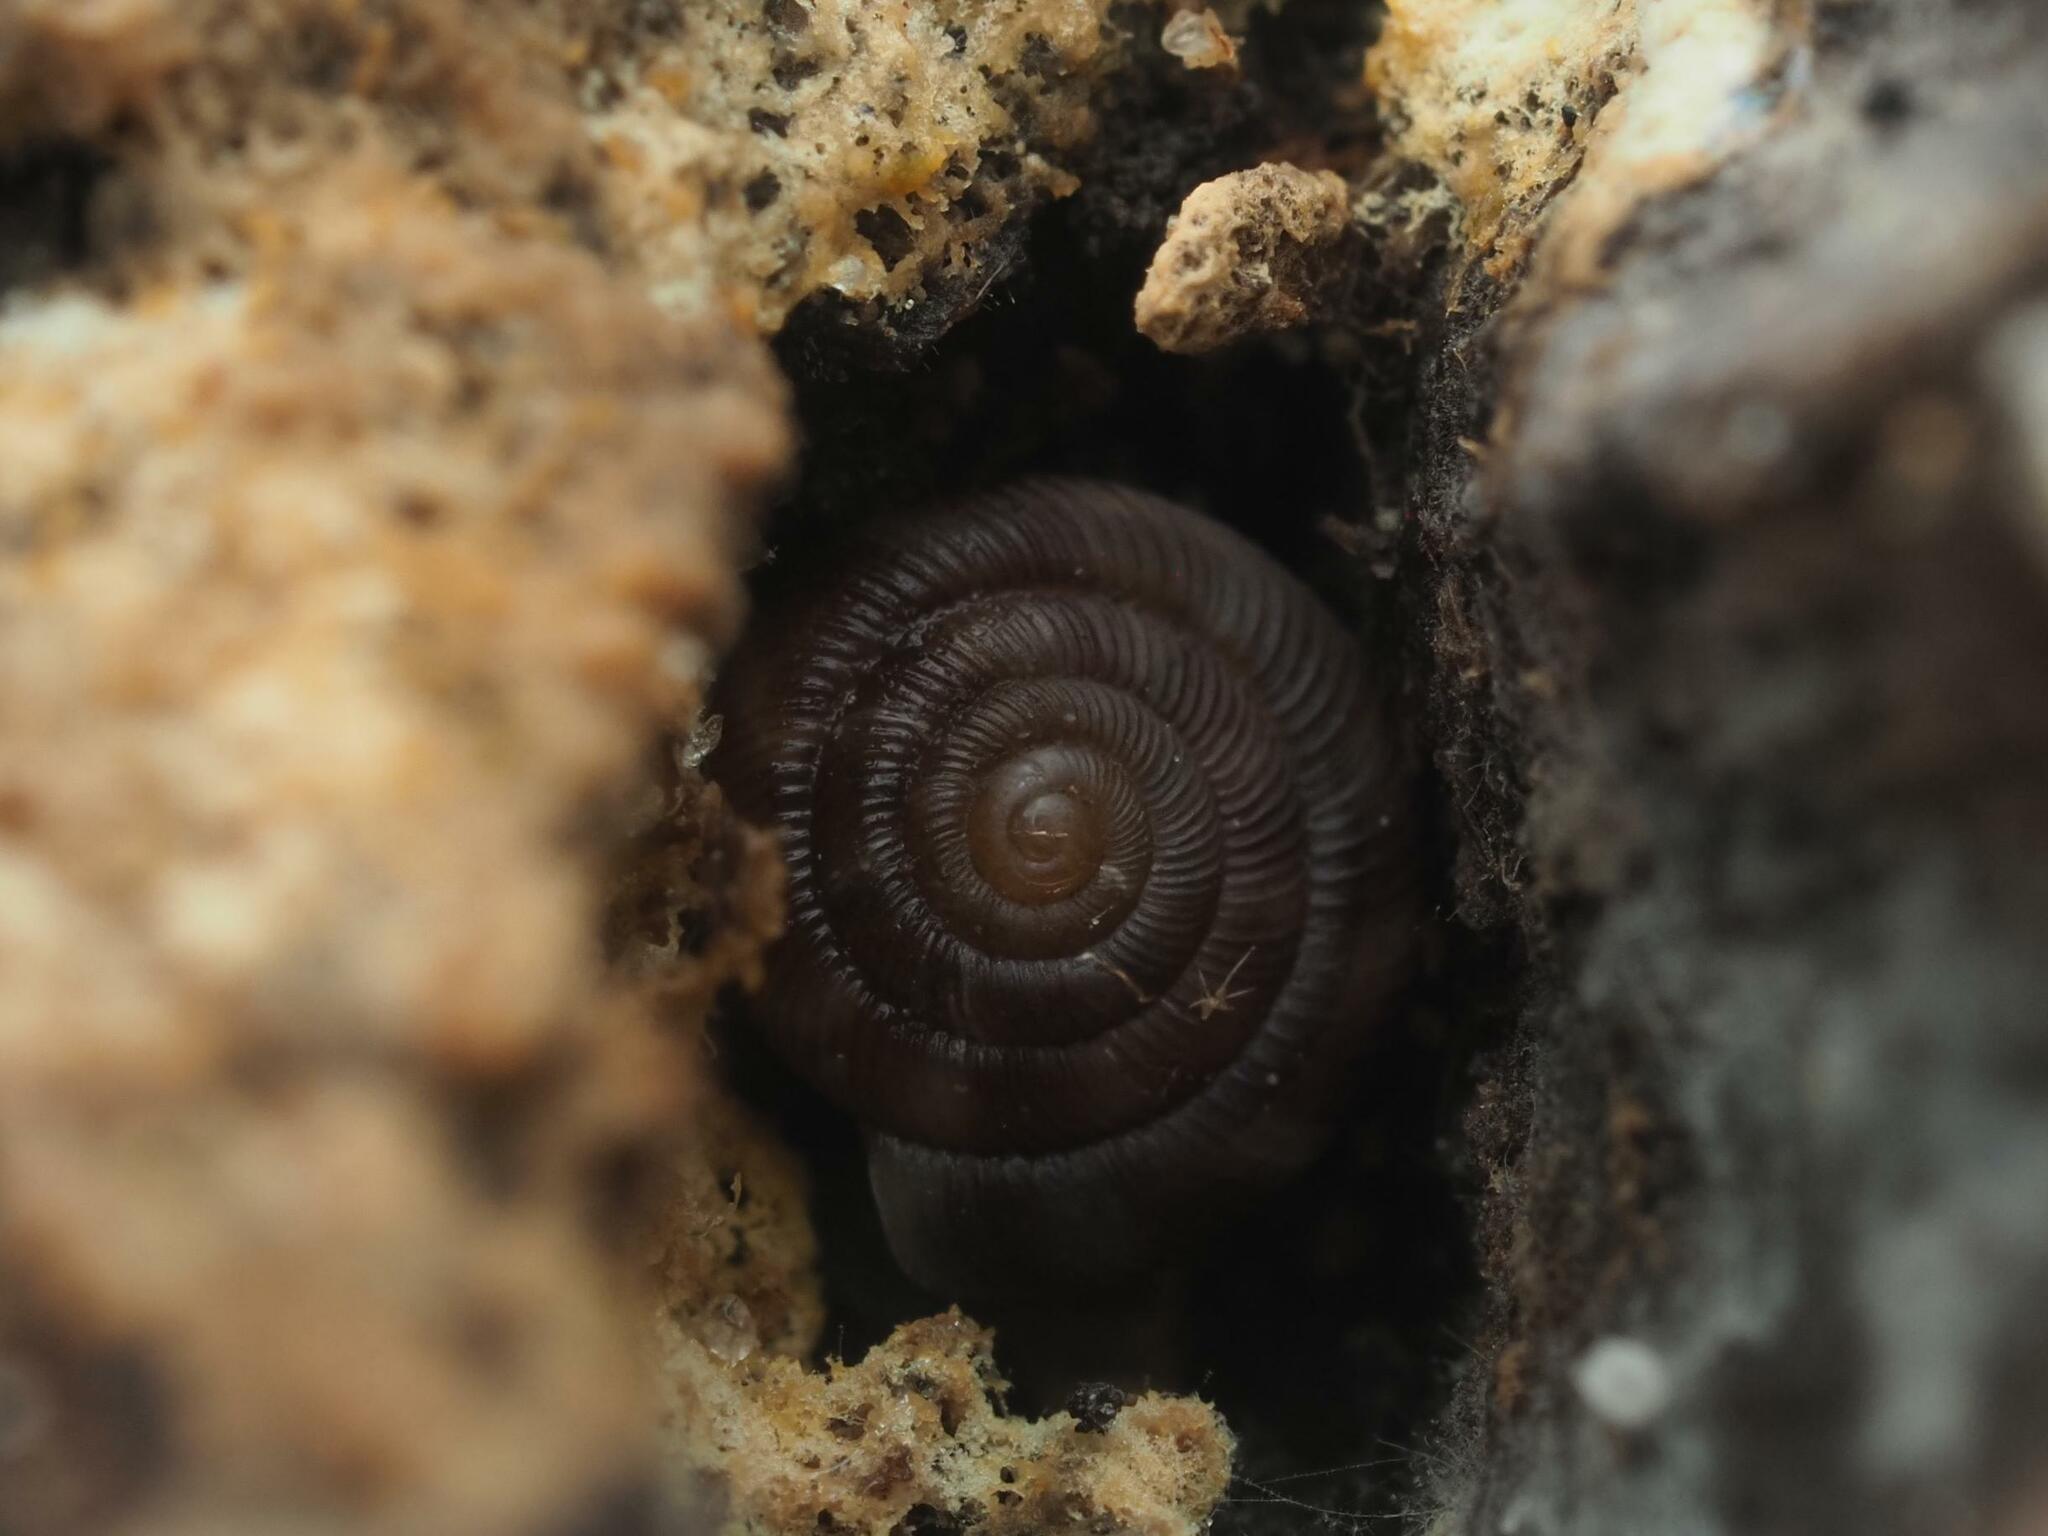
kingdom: Animalia
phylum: Mollusca
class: Gastropoda
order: Stylommatophora
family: Discidae
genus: Discus
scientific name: Discus rotundatus
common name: Rounded snail
